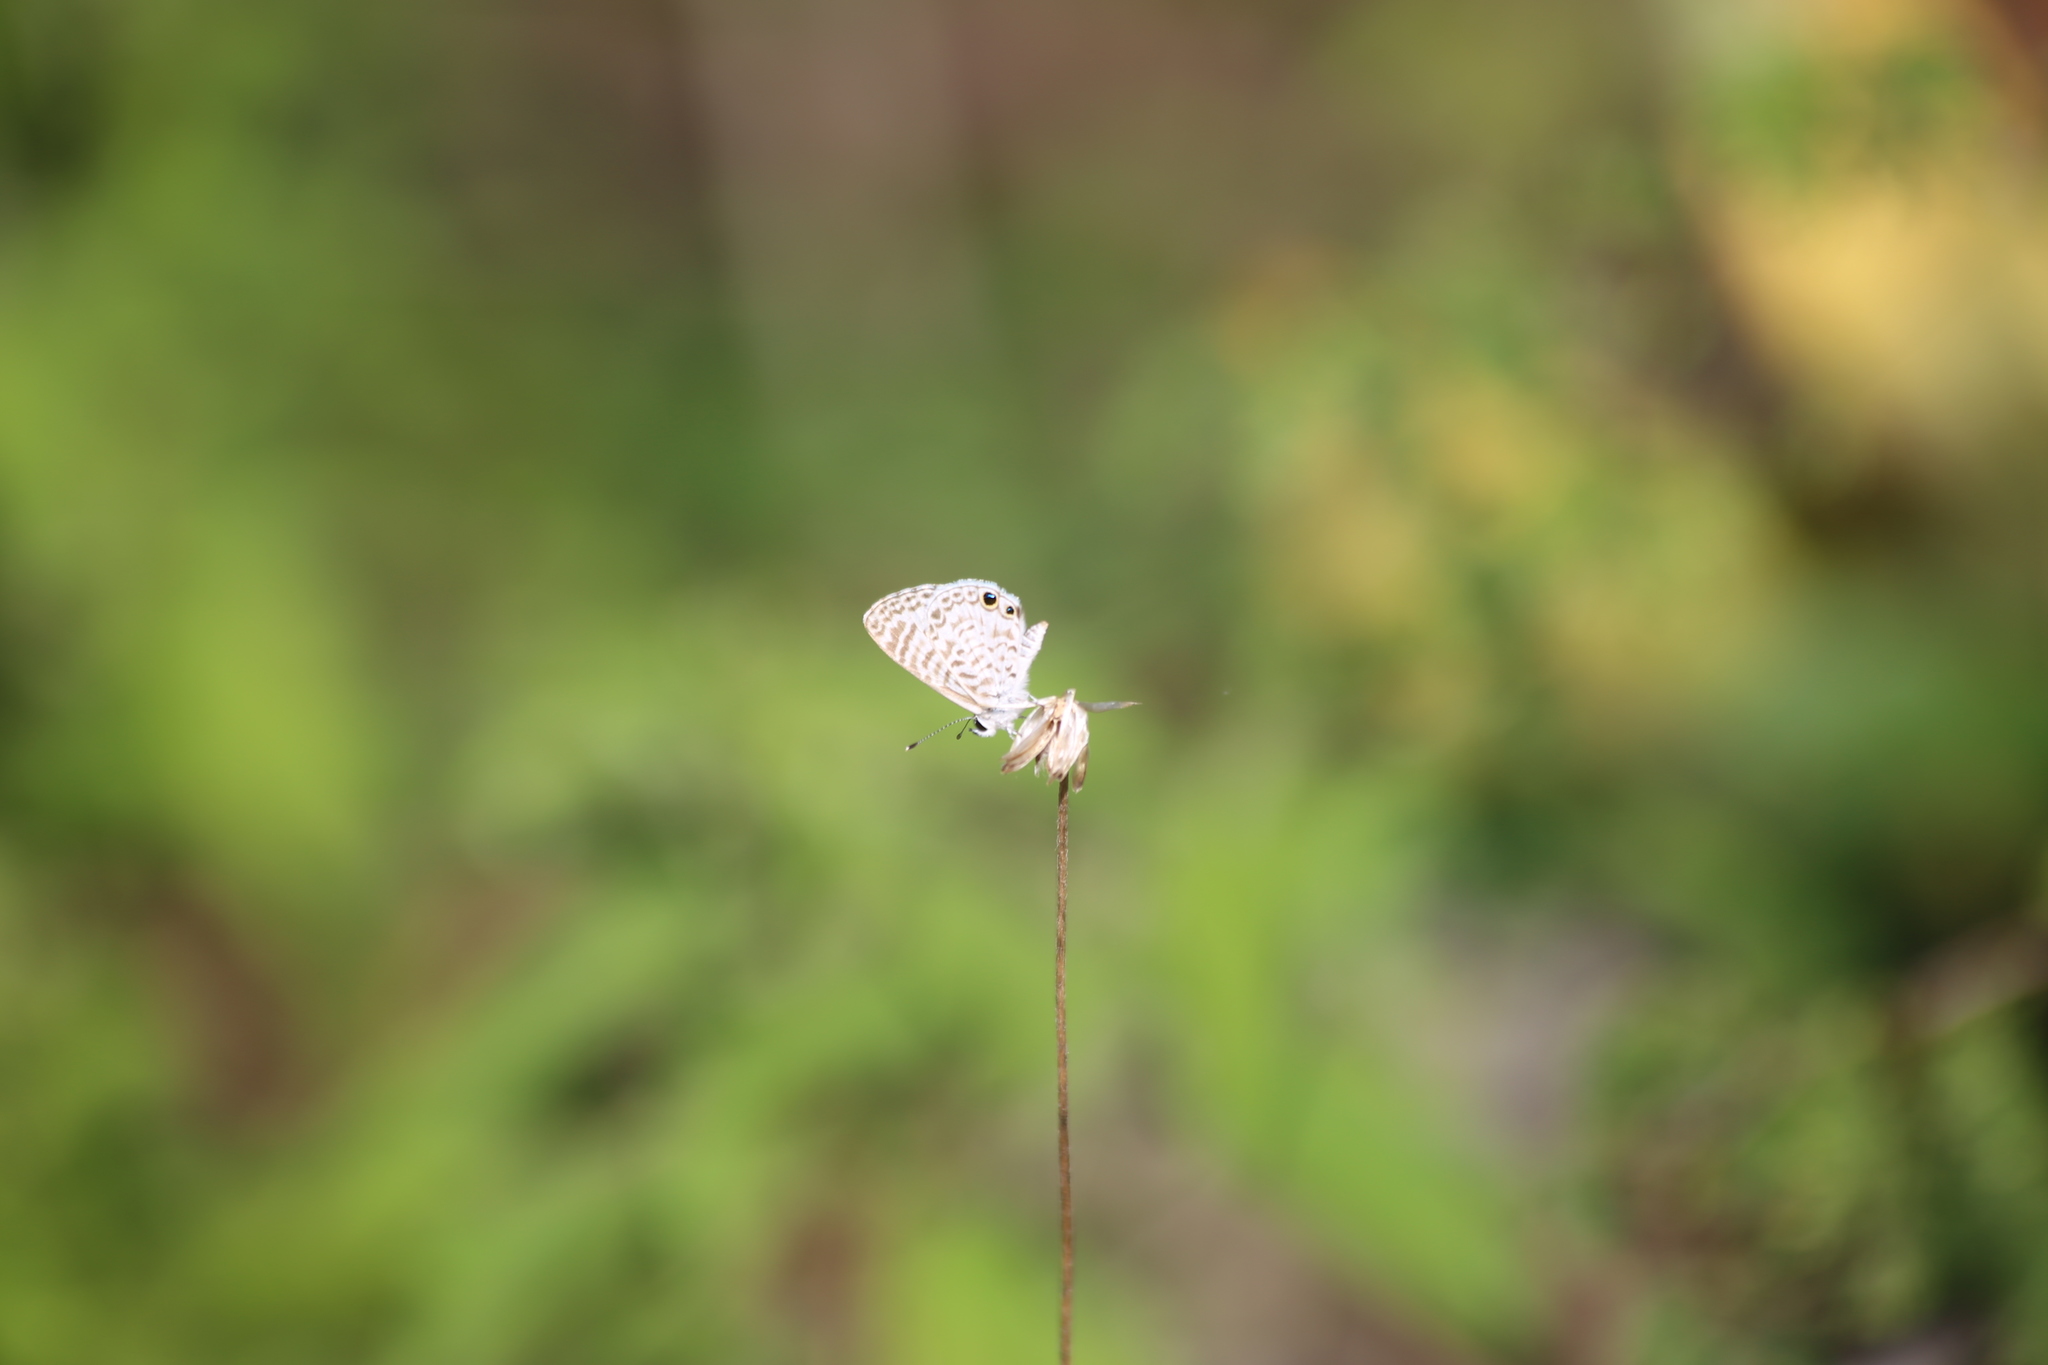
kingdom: Animalia
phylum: Arthropoda
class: Insecta
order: Lepidoptera
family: Lycaenidae
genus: Leptotes
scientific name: Leptotes theonus
